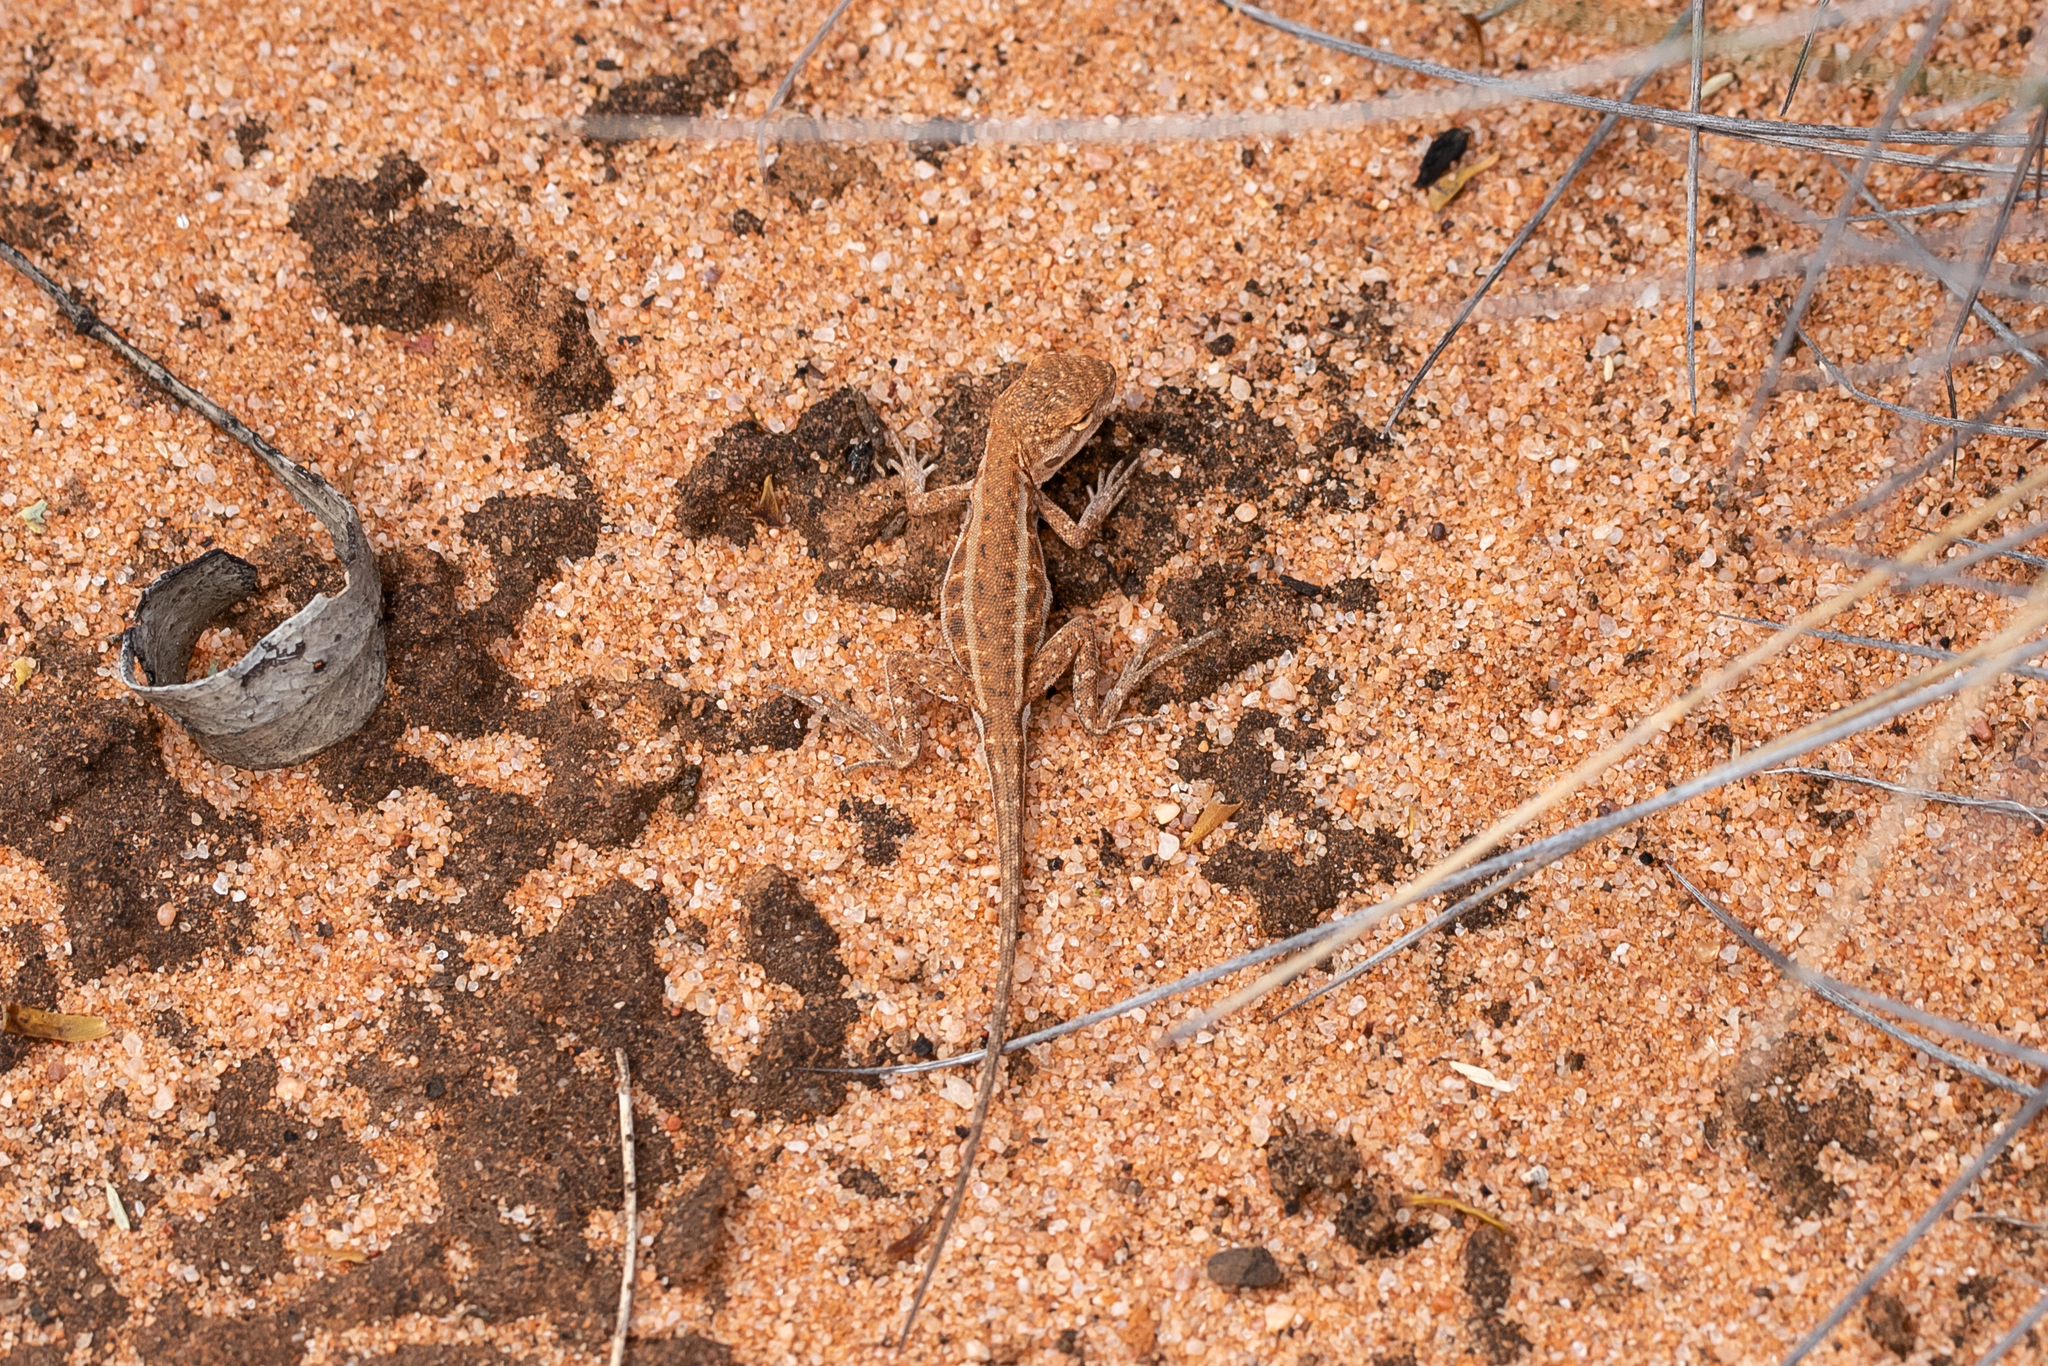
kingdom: Animalia
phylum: Chordata
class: Squamata
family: Agamidae
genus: Ctenophorus
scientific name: Ctenophorus spinodomus
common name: Eastern mallee dragon
